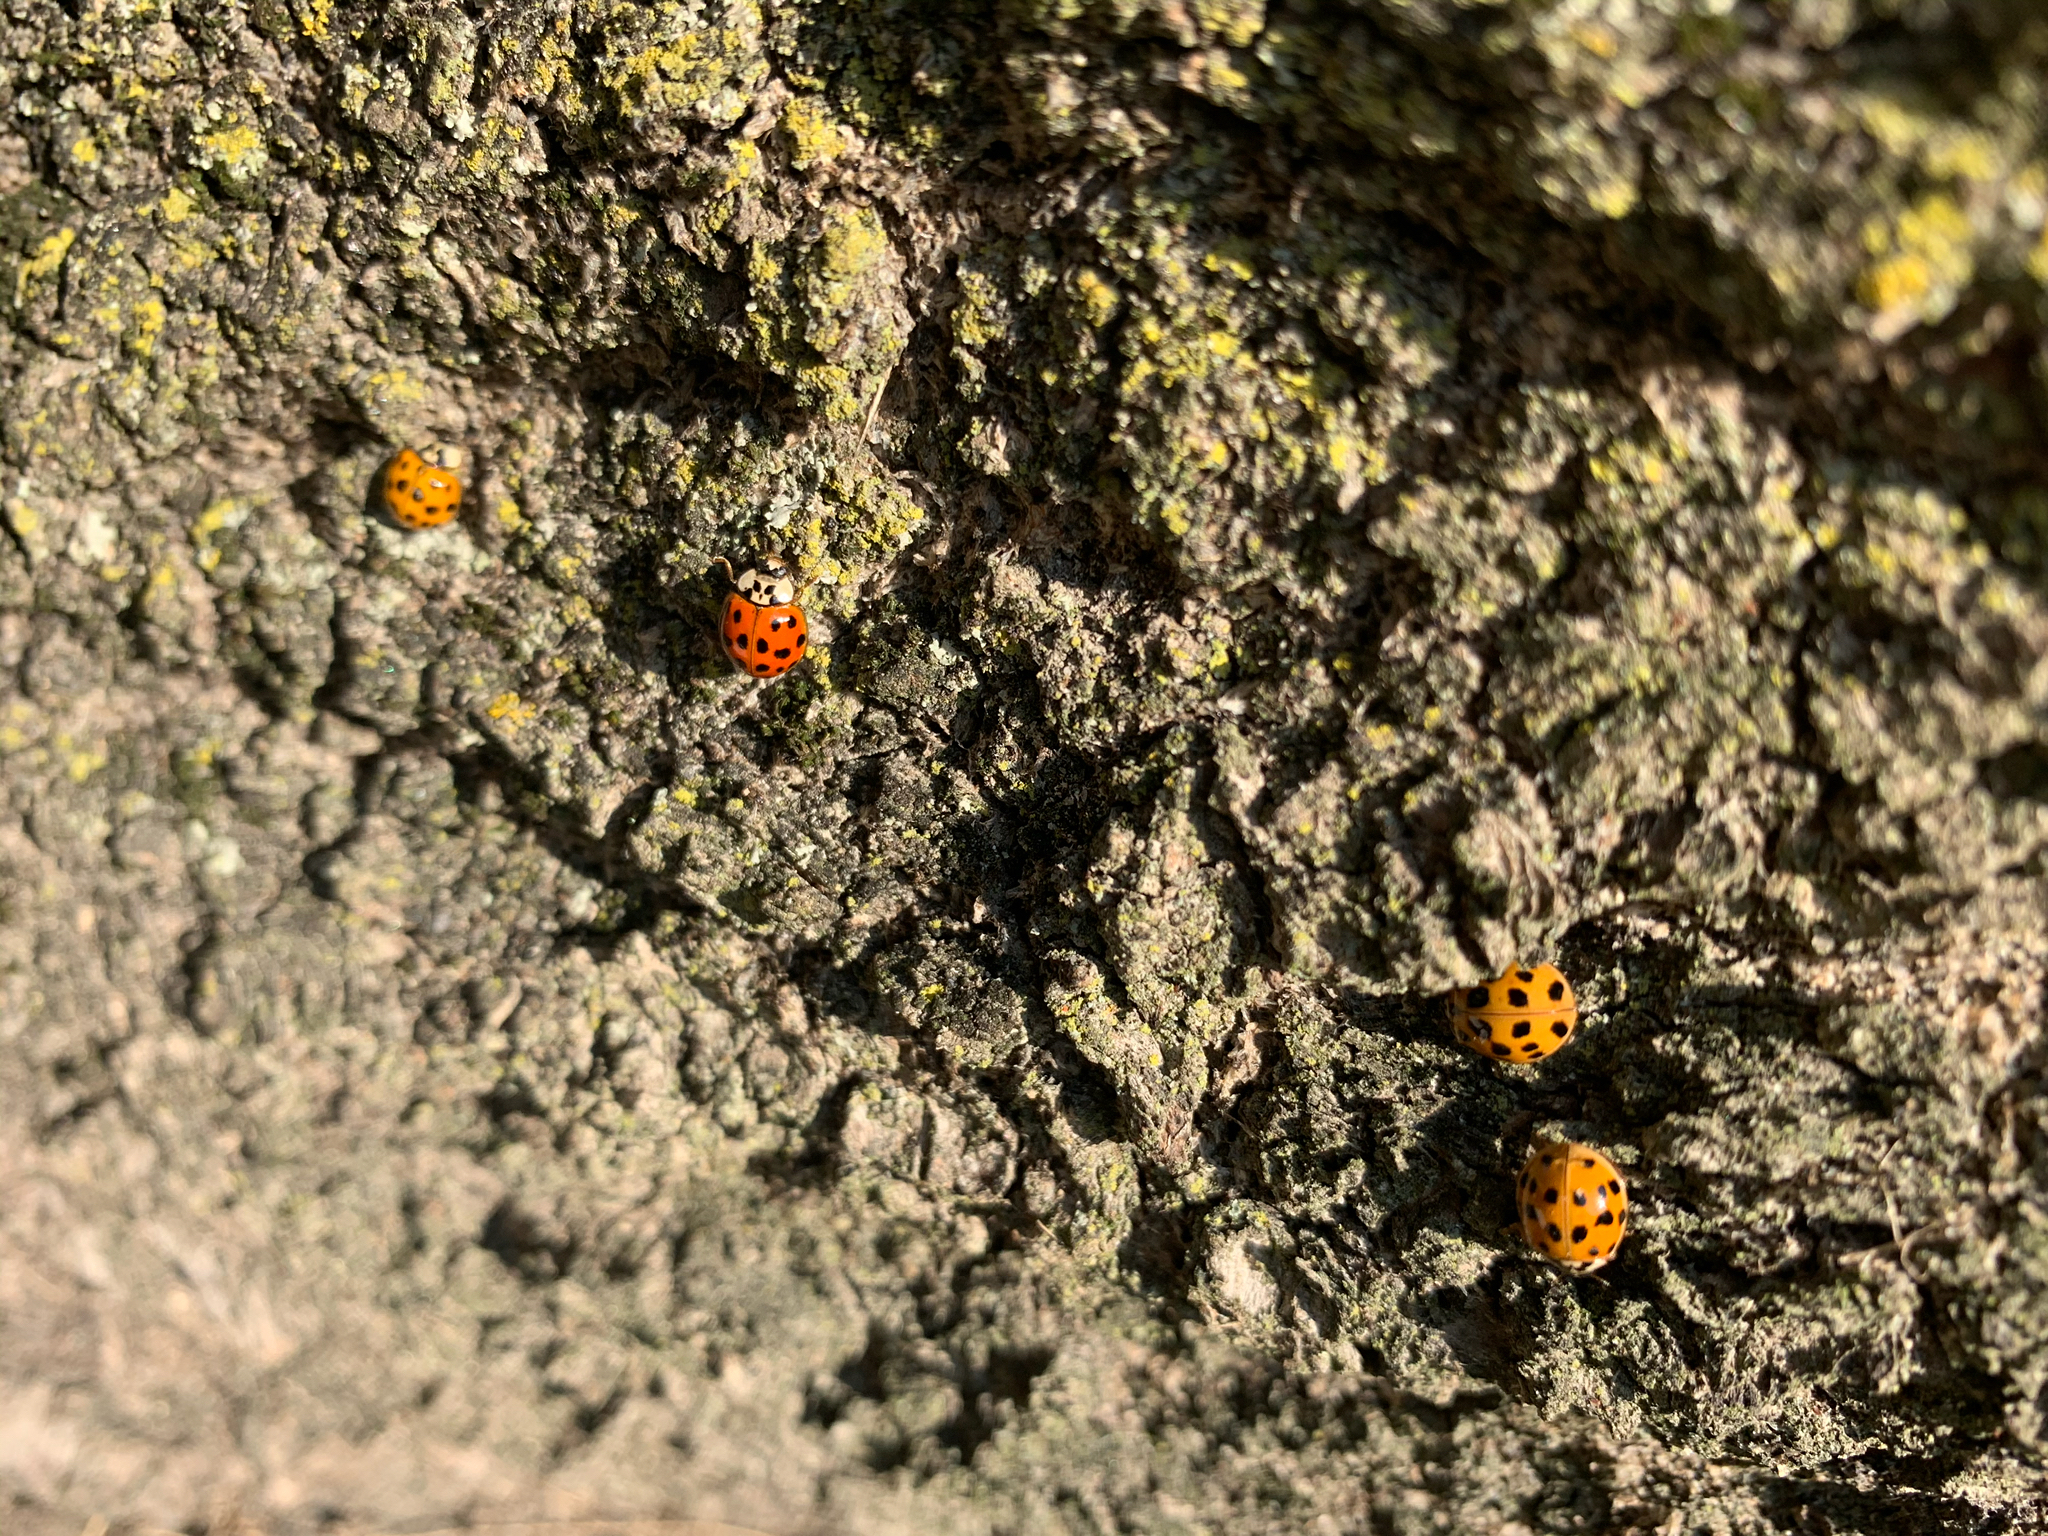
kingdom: Animalia
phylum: Arthropoda
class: Insecta
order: Coleoptera
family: Coccinellidae
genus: Harmonia
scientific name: Harmonia axyridis
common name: Harlequin ladybird
